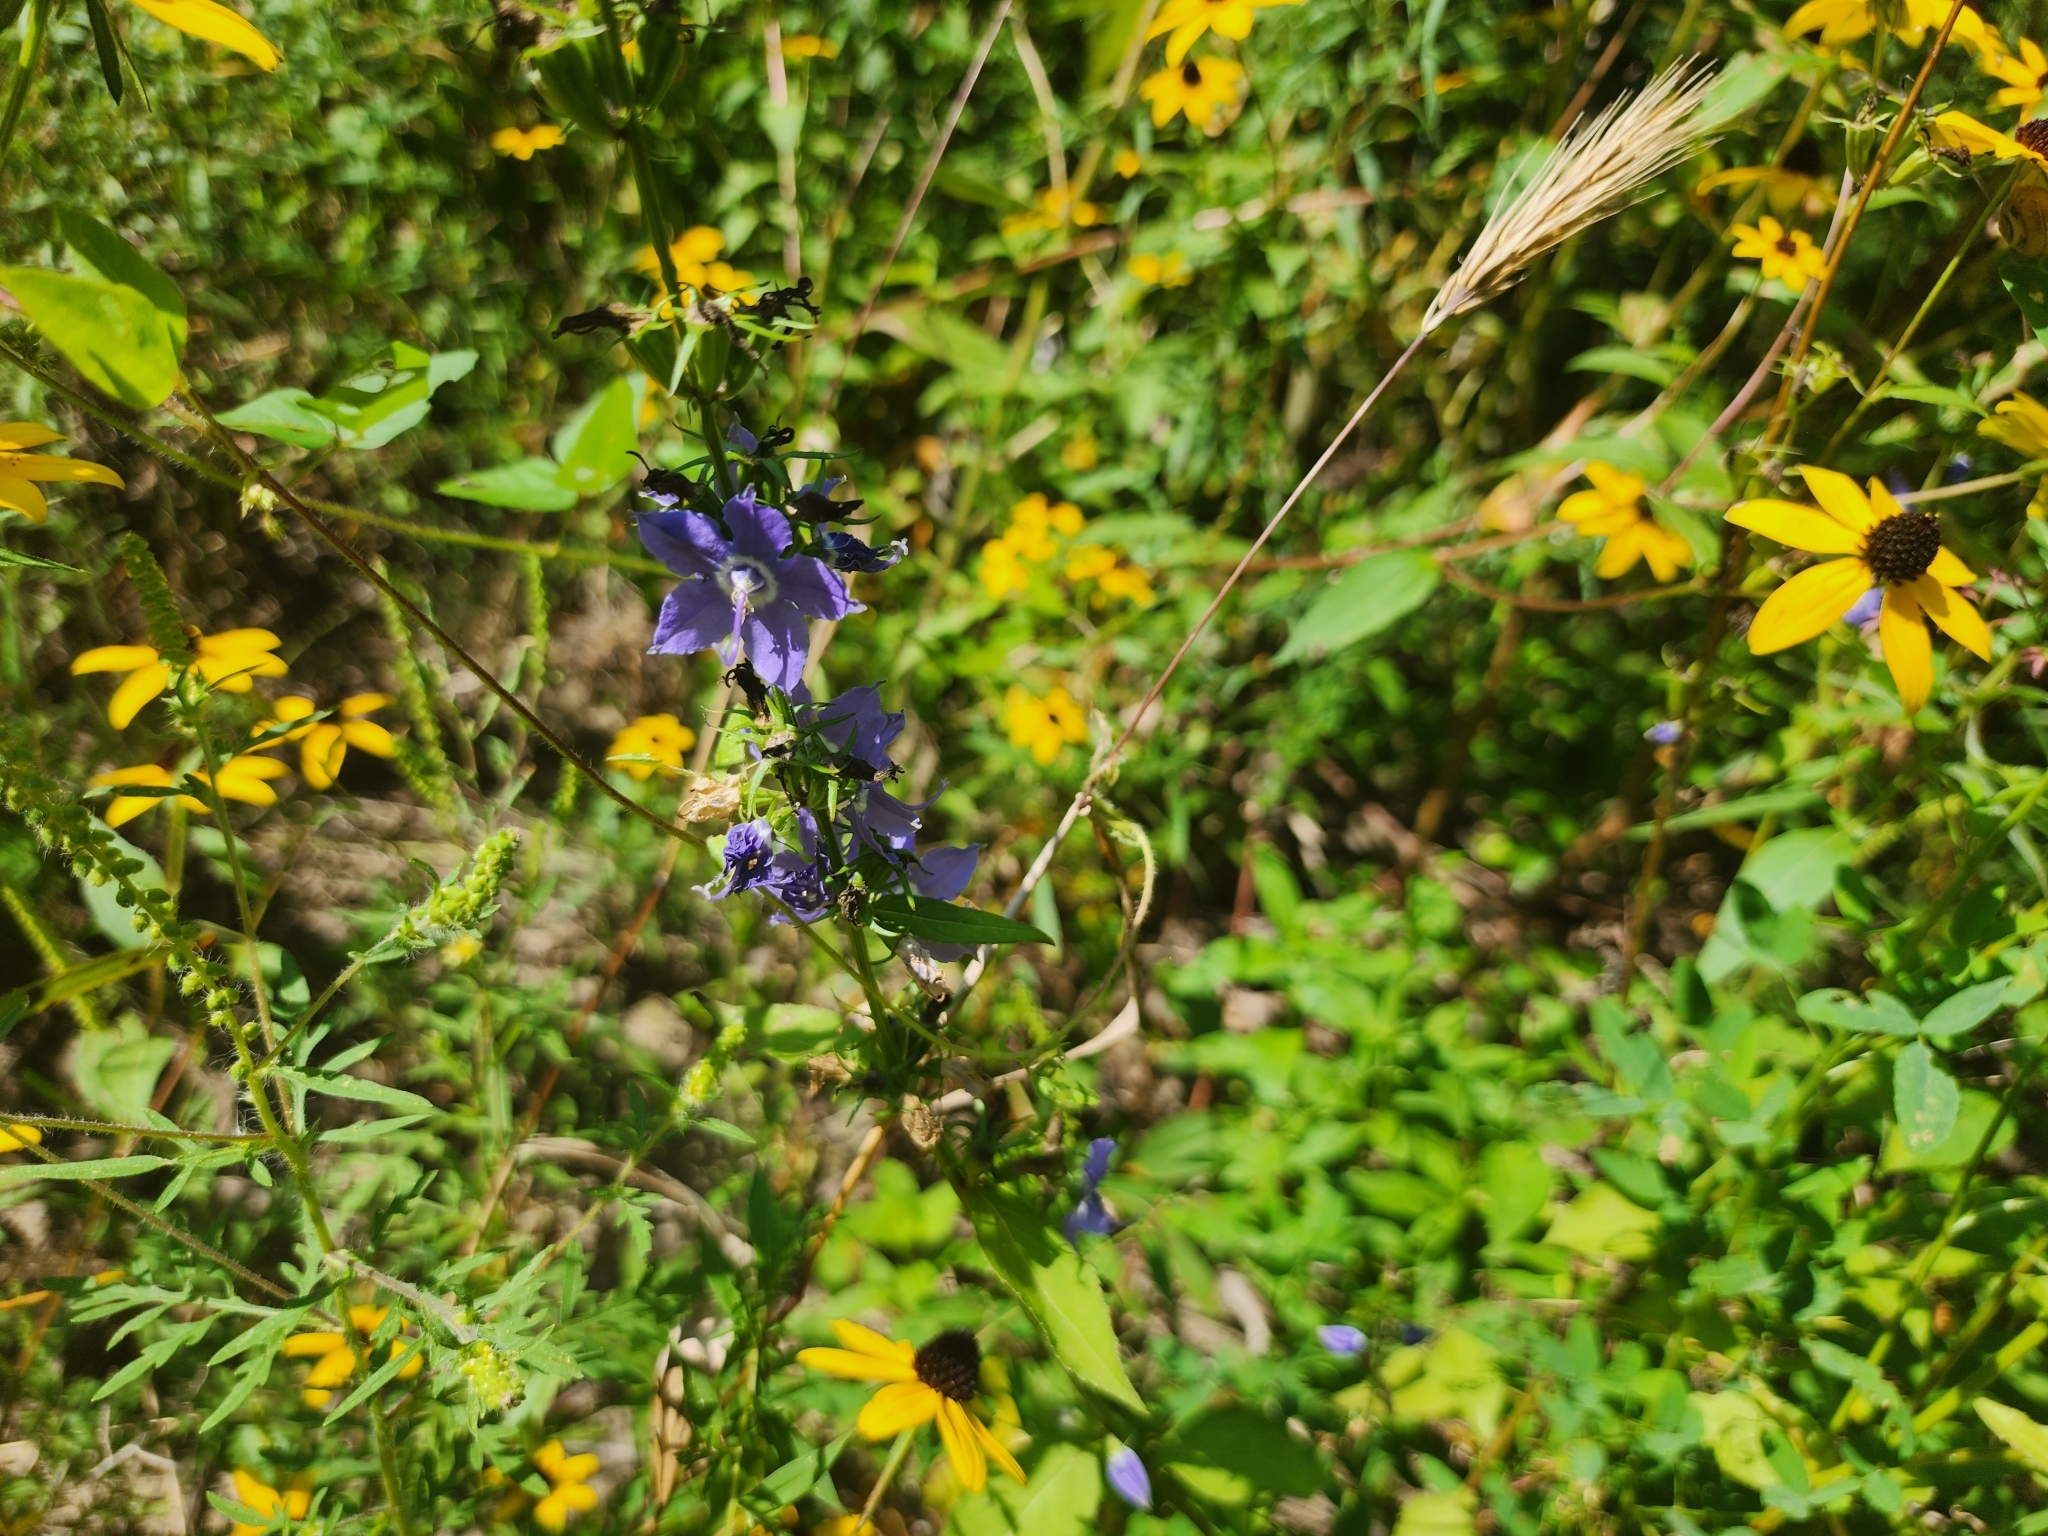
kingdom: Plantae
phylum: Tracheophyta
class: Magnoliopsida
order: Asterales
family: Campanulaceae
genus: Campanulastrum
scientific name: Campanulastrum americanum
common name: American bellflower
